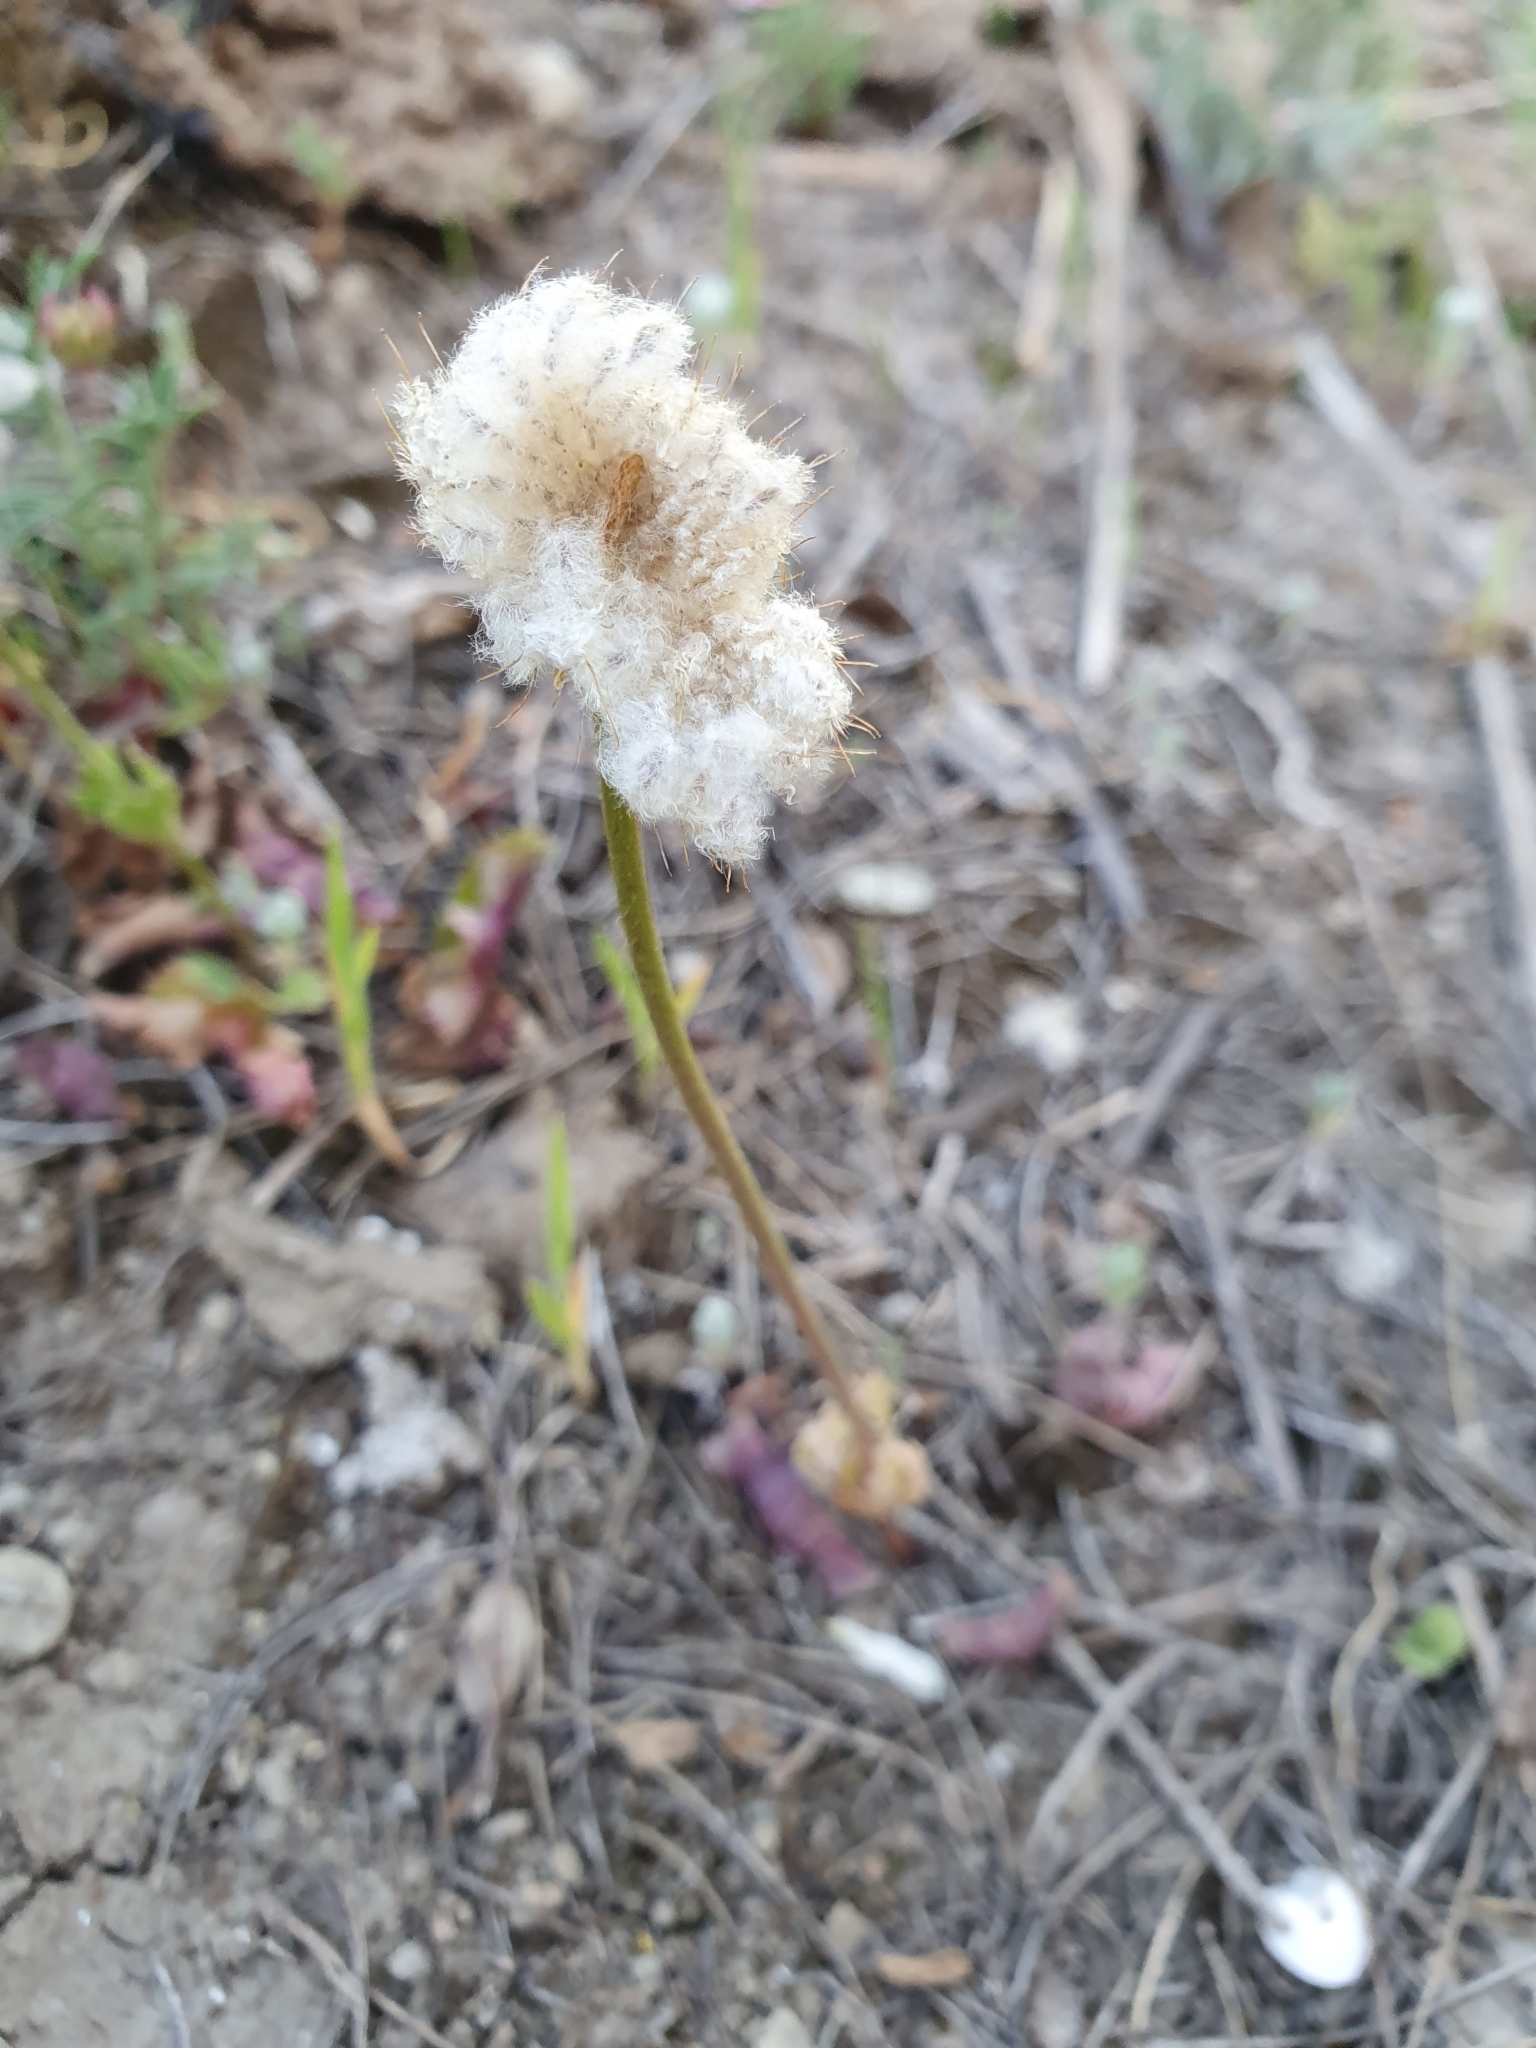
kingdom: Plantae
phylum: Tracheophyta
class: Magnoliopsida
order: Ranunculales
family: Ranunculaceae
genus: Anemone
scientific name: Anemone palmata
